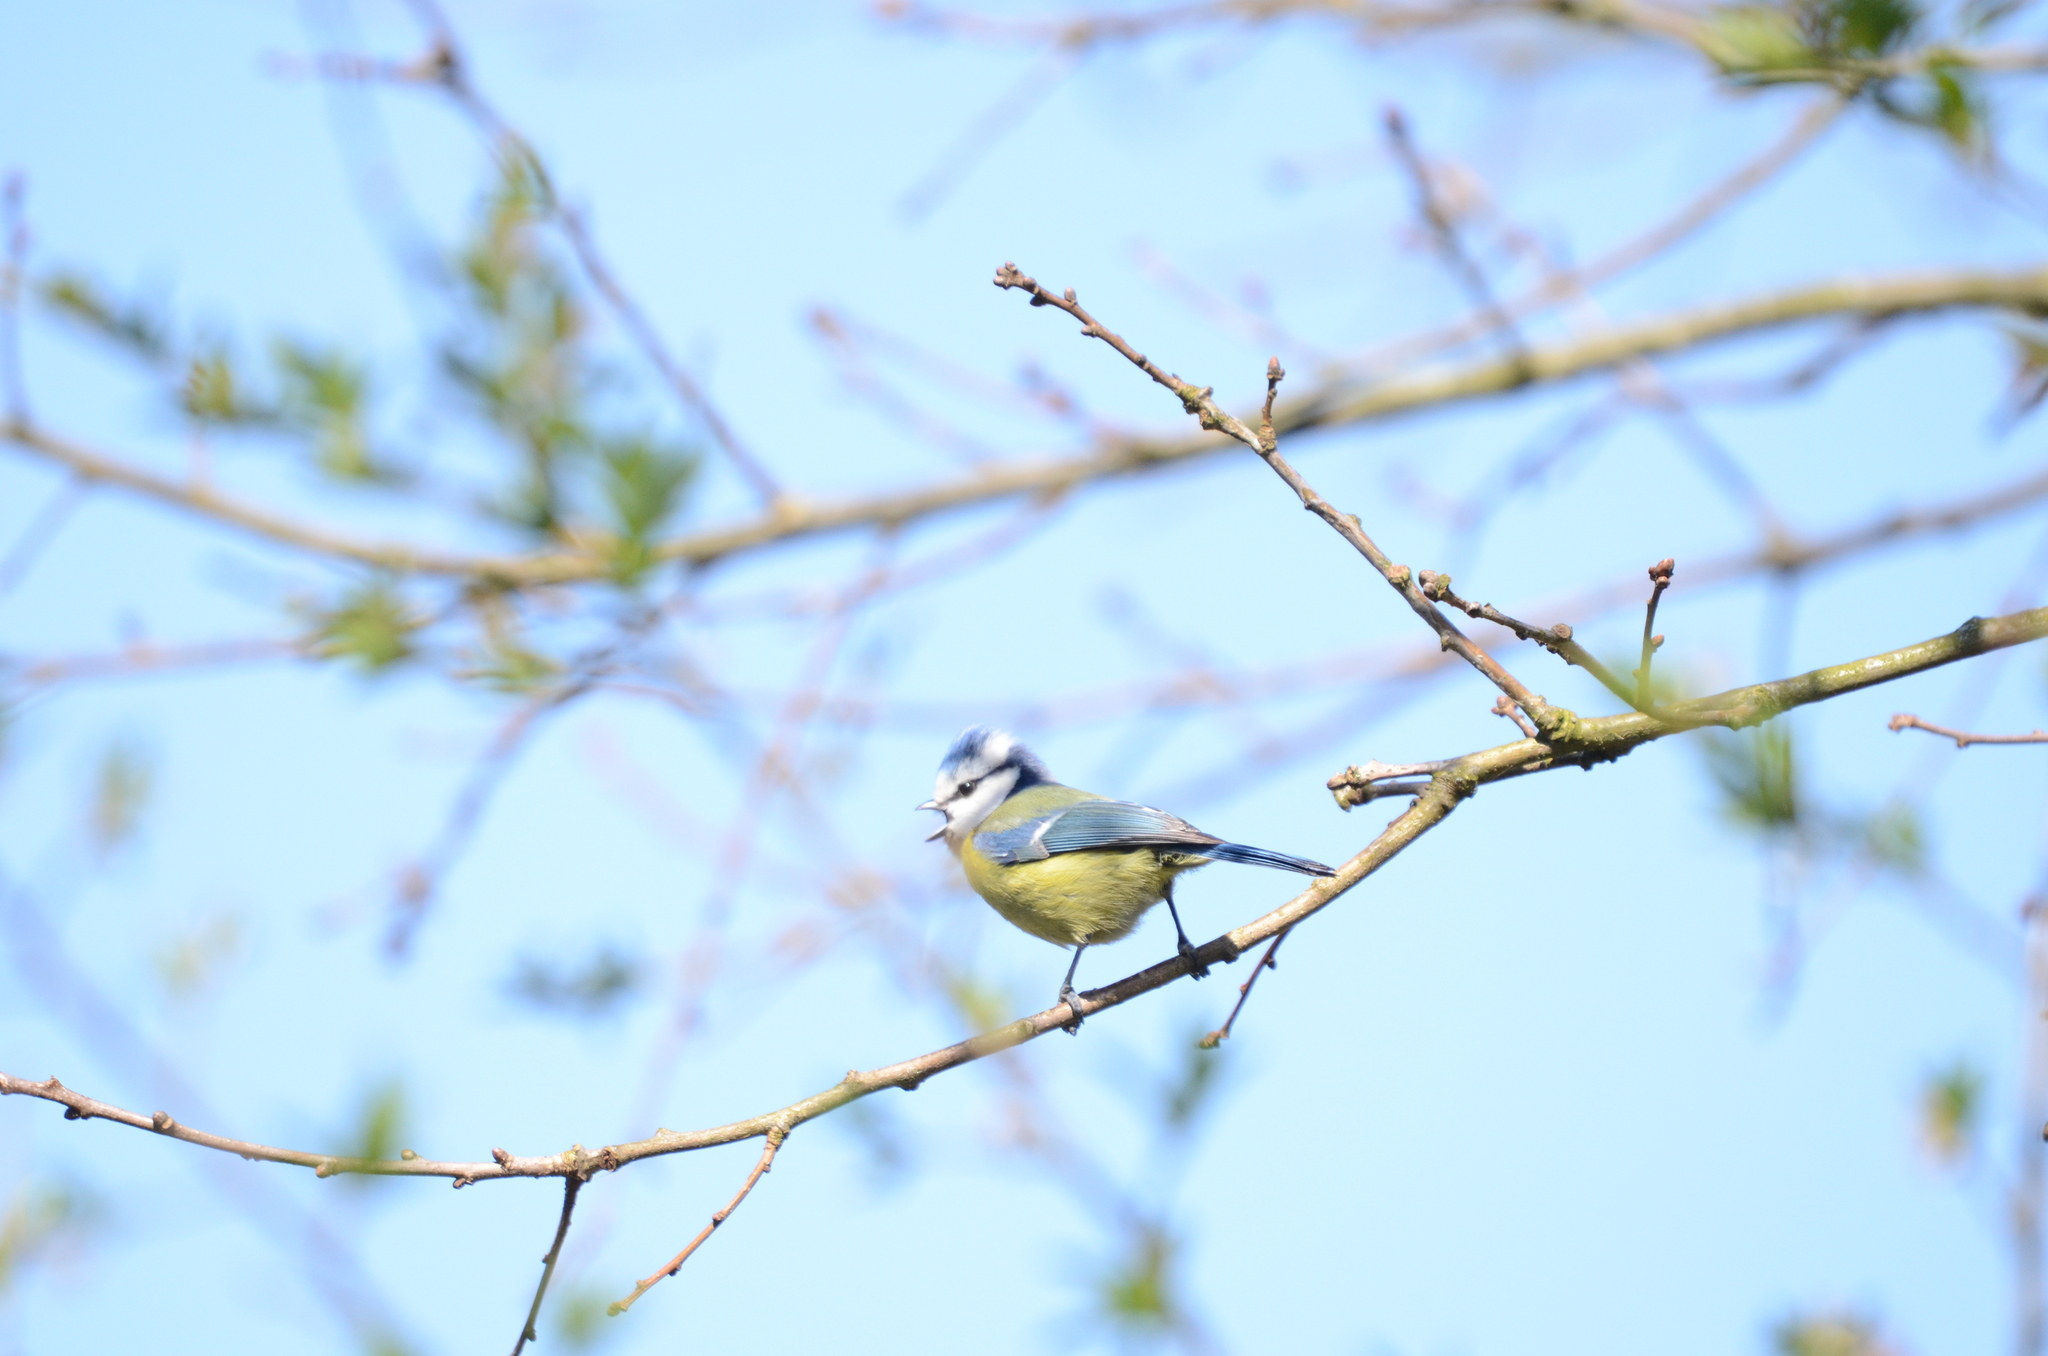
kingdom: Animalia
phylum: Chordata
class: Aves
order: Passeriformes
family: Paridae
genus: Cyanistes
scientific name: Cyanistes caeruleus
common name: Eurasian blue tit
